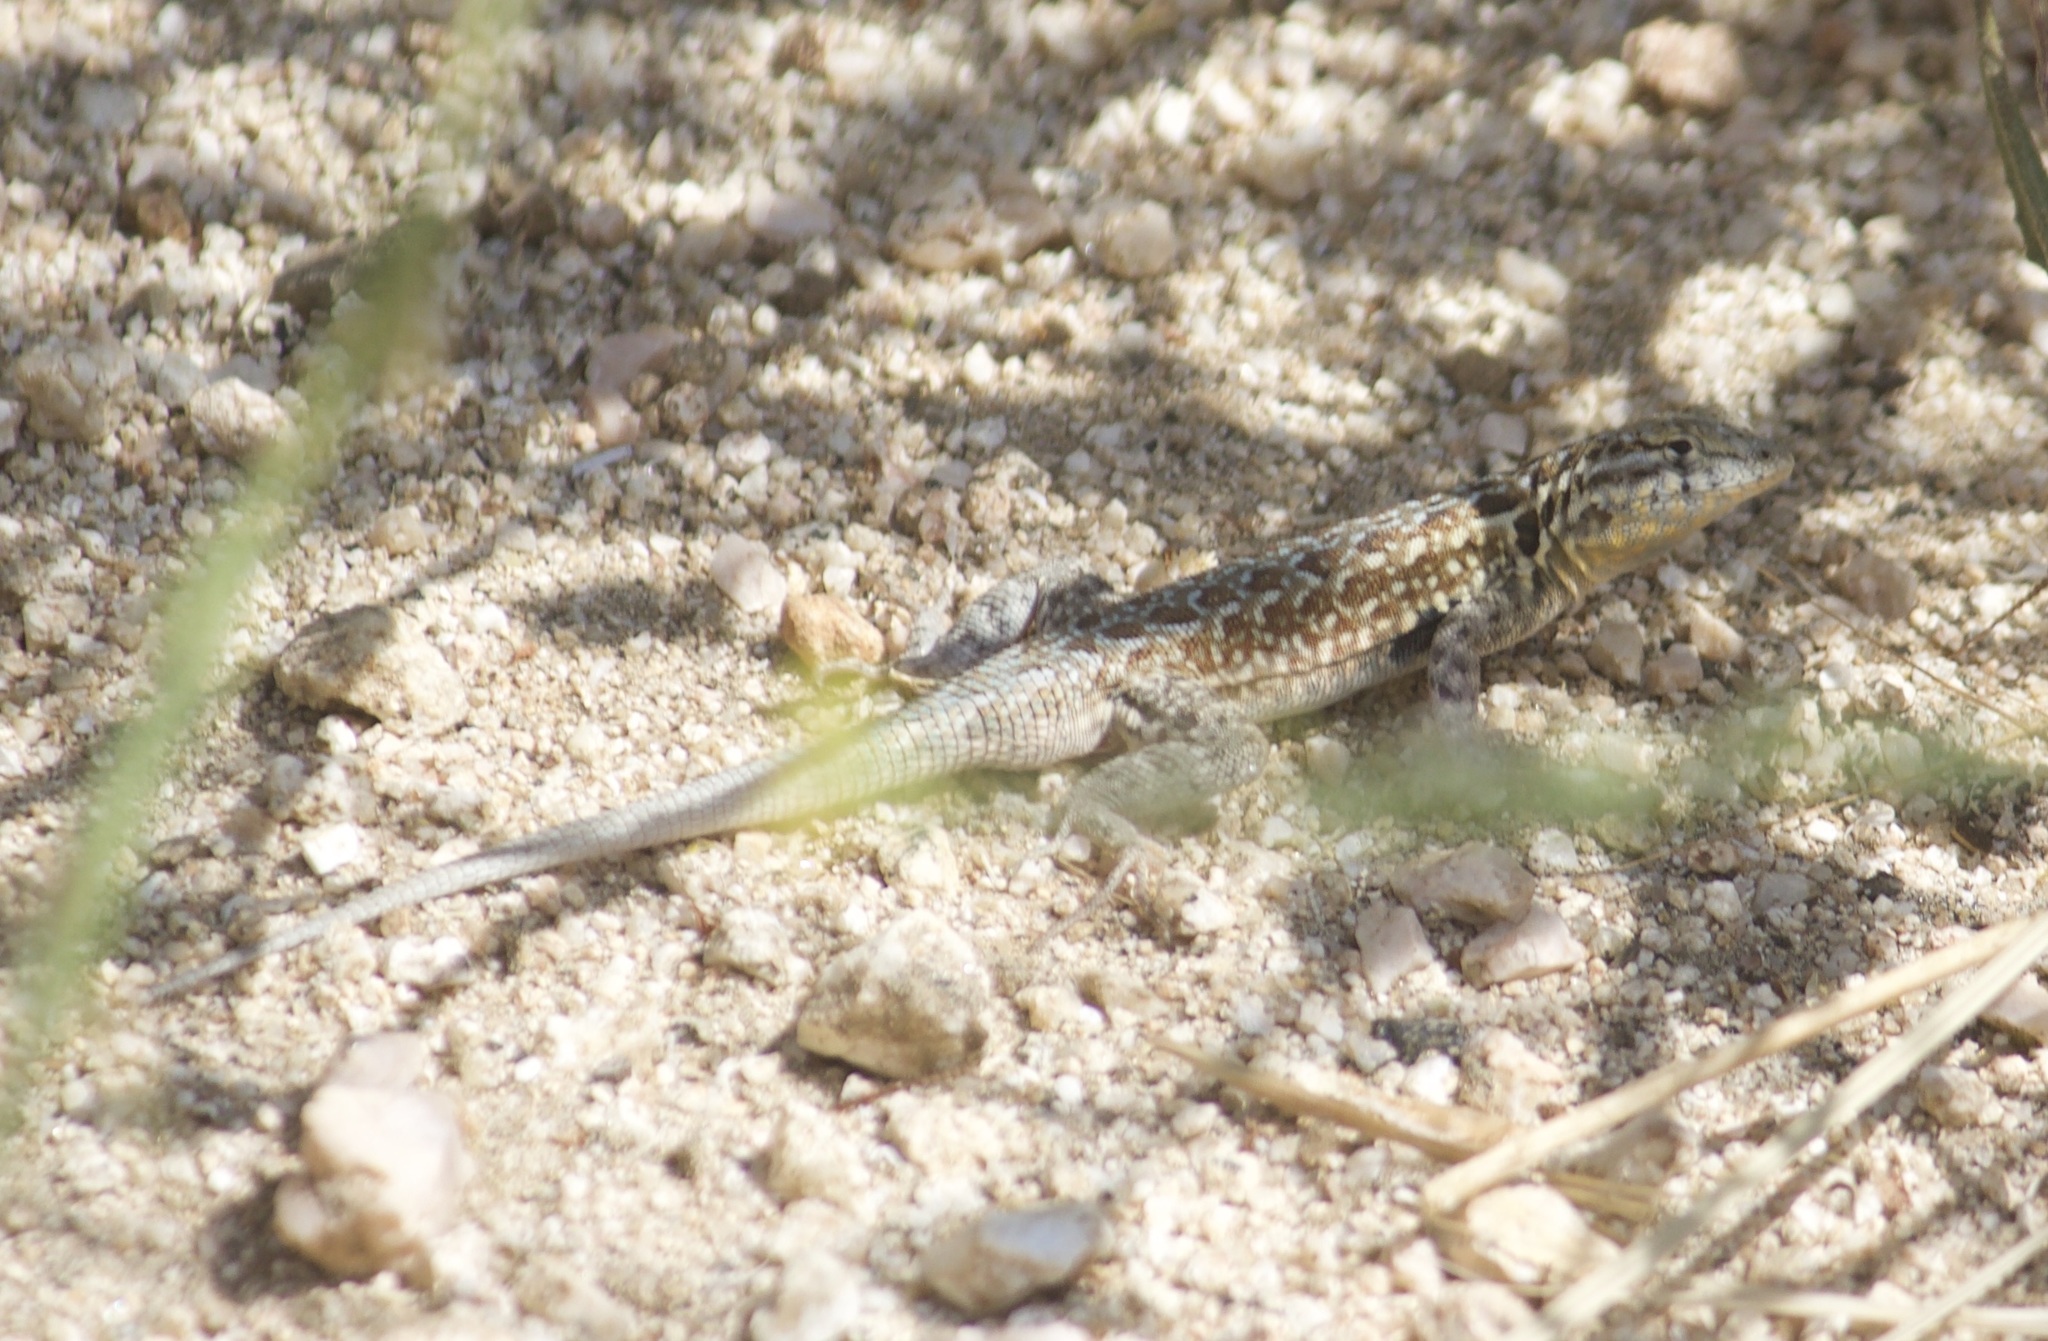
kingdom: Animalia
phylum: Chordata
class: Squamata
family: Phrynosomatidae
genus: Uta
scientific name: Uta stansburiana
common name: Side-blotched lizard
